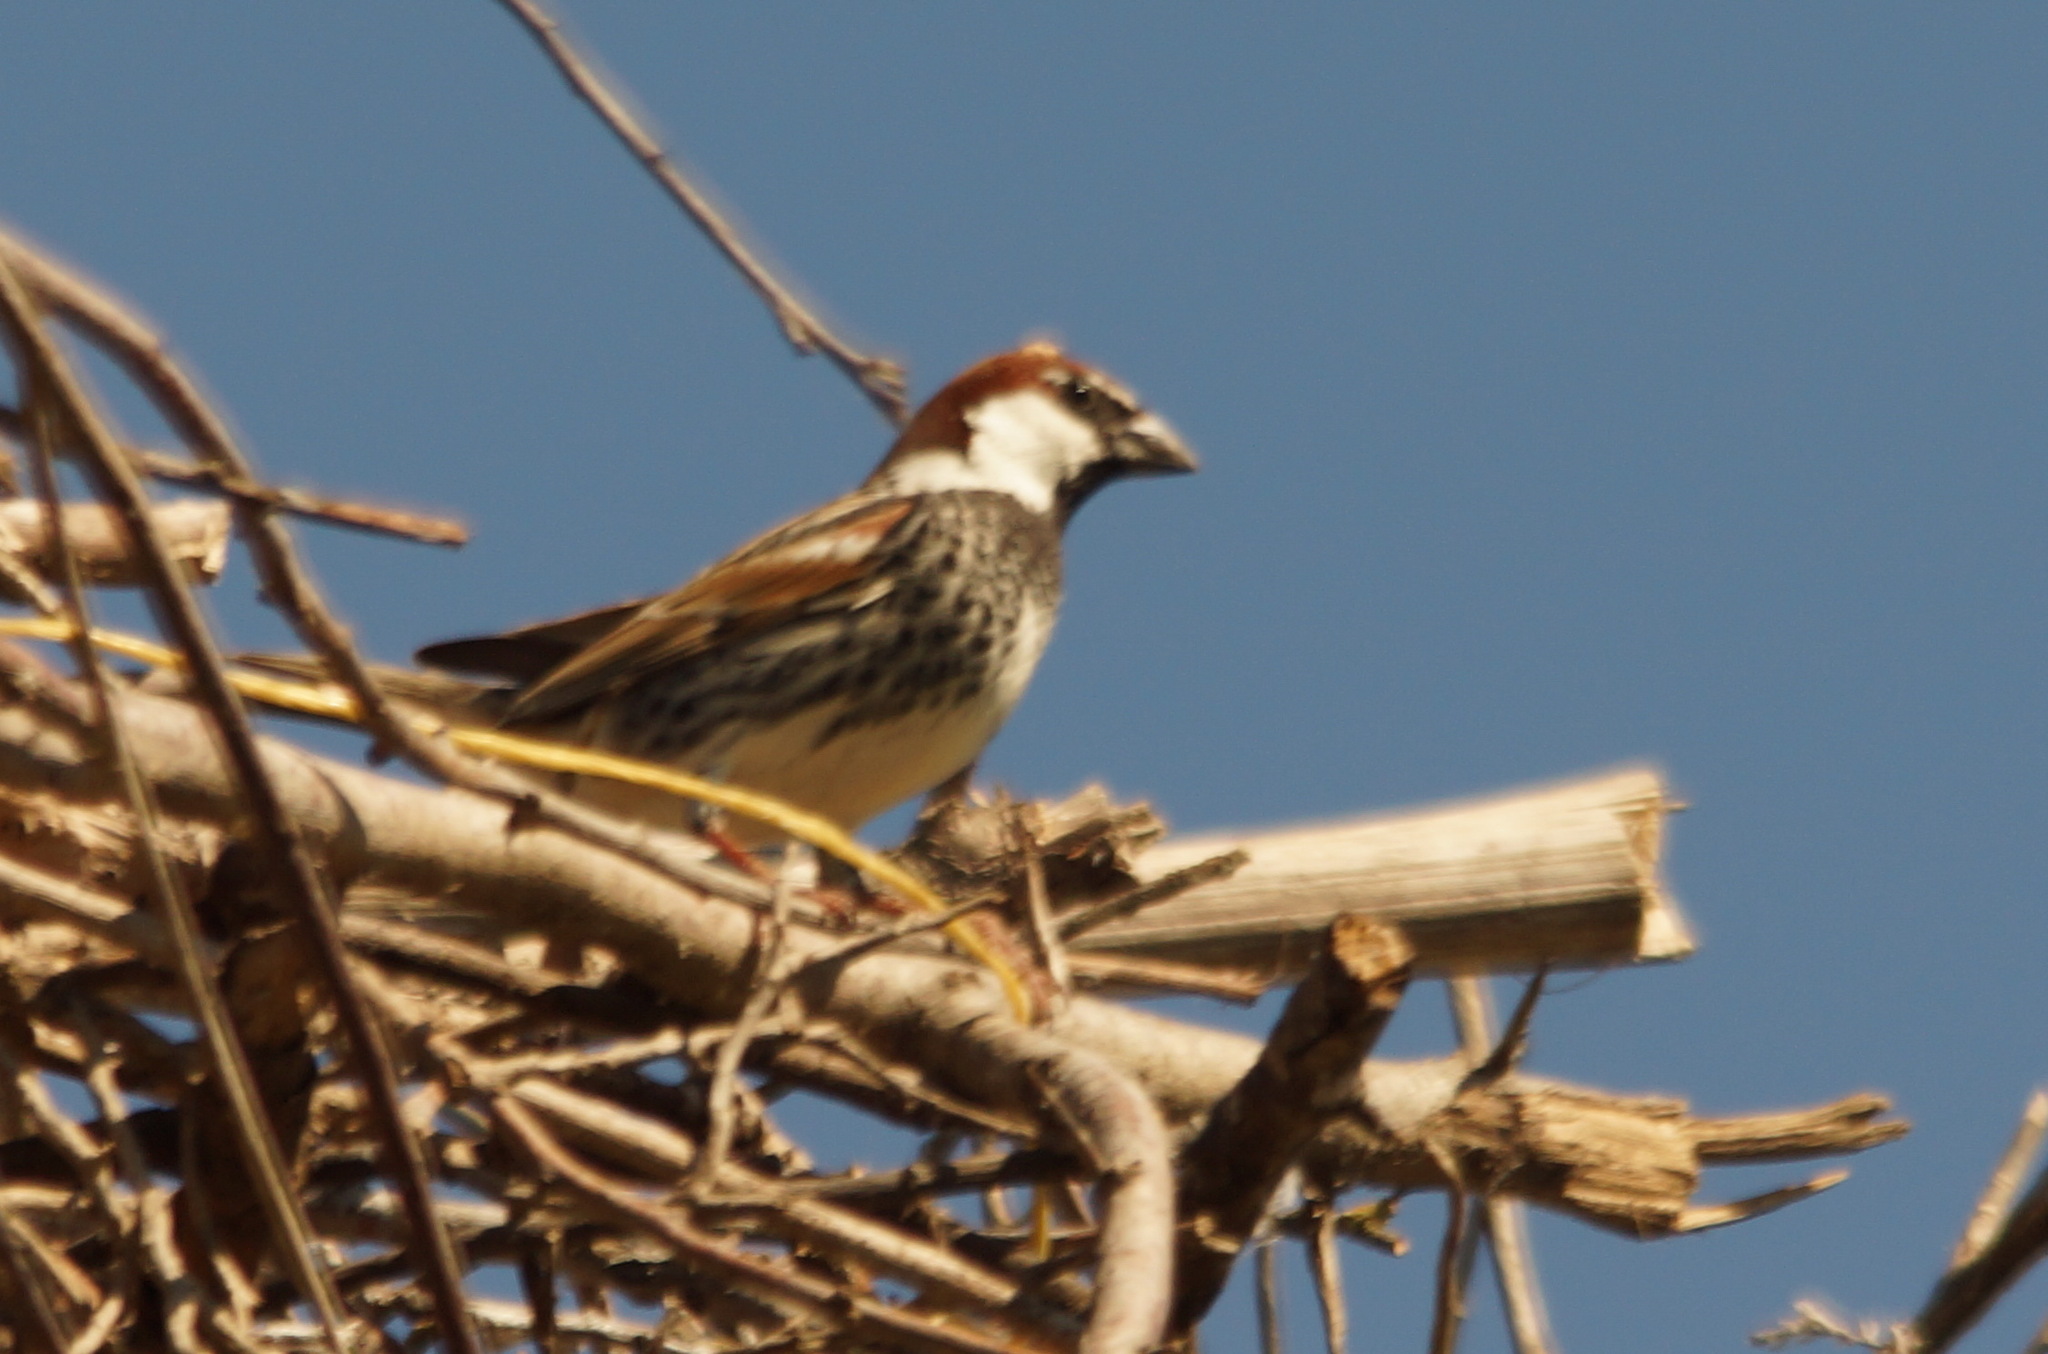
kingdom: Animalia
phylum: Chordata
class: Aves
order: Passeriformes
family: Passeridae
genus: Passer
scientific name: Passer hispaniolensis
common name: Spanish sparrow
